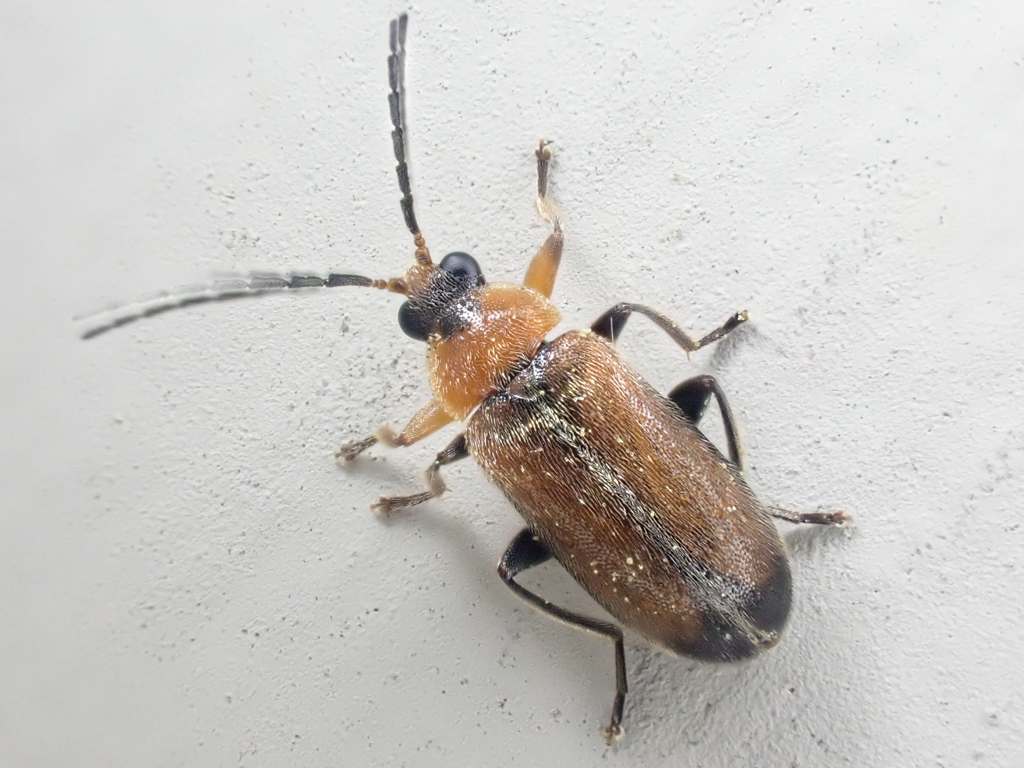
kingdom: Animalia
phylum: Arthropoda
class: Insecta
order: Coleoptera
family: Scirtidae
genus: Elodes
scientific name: Elodes apicalis
